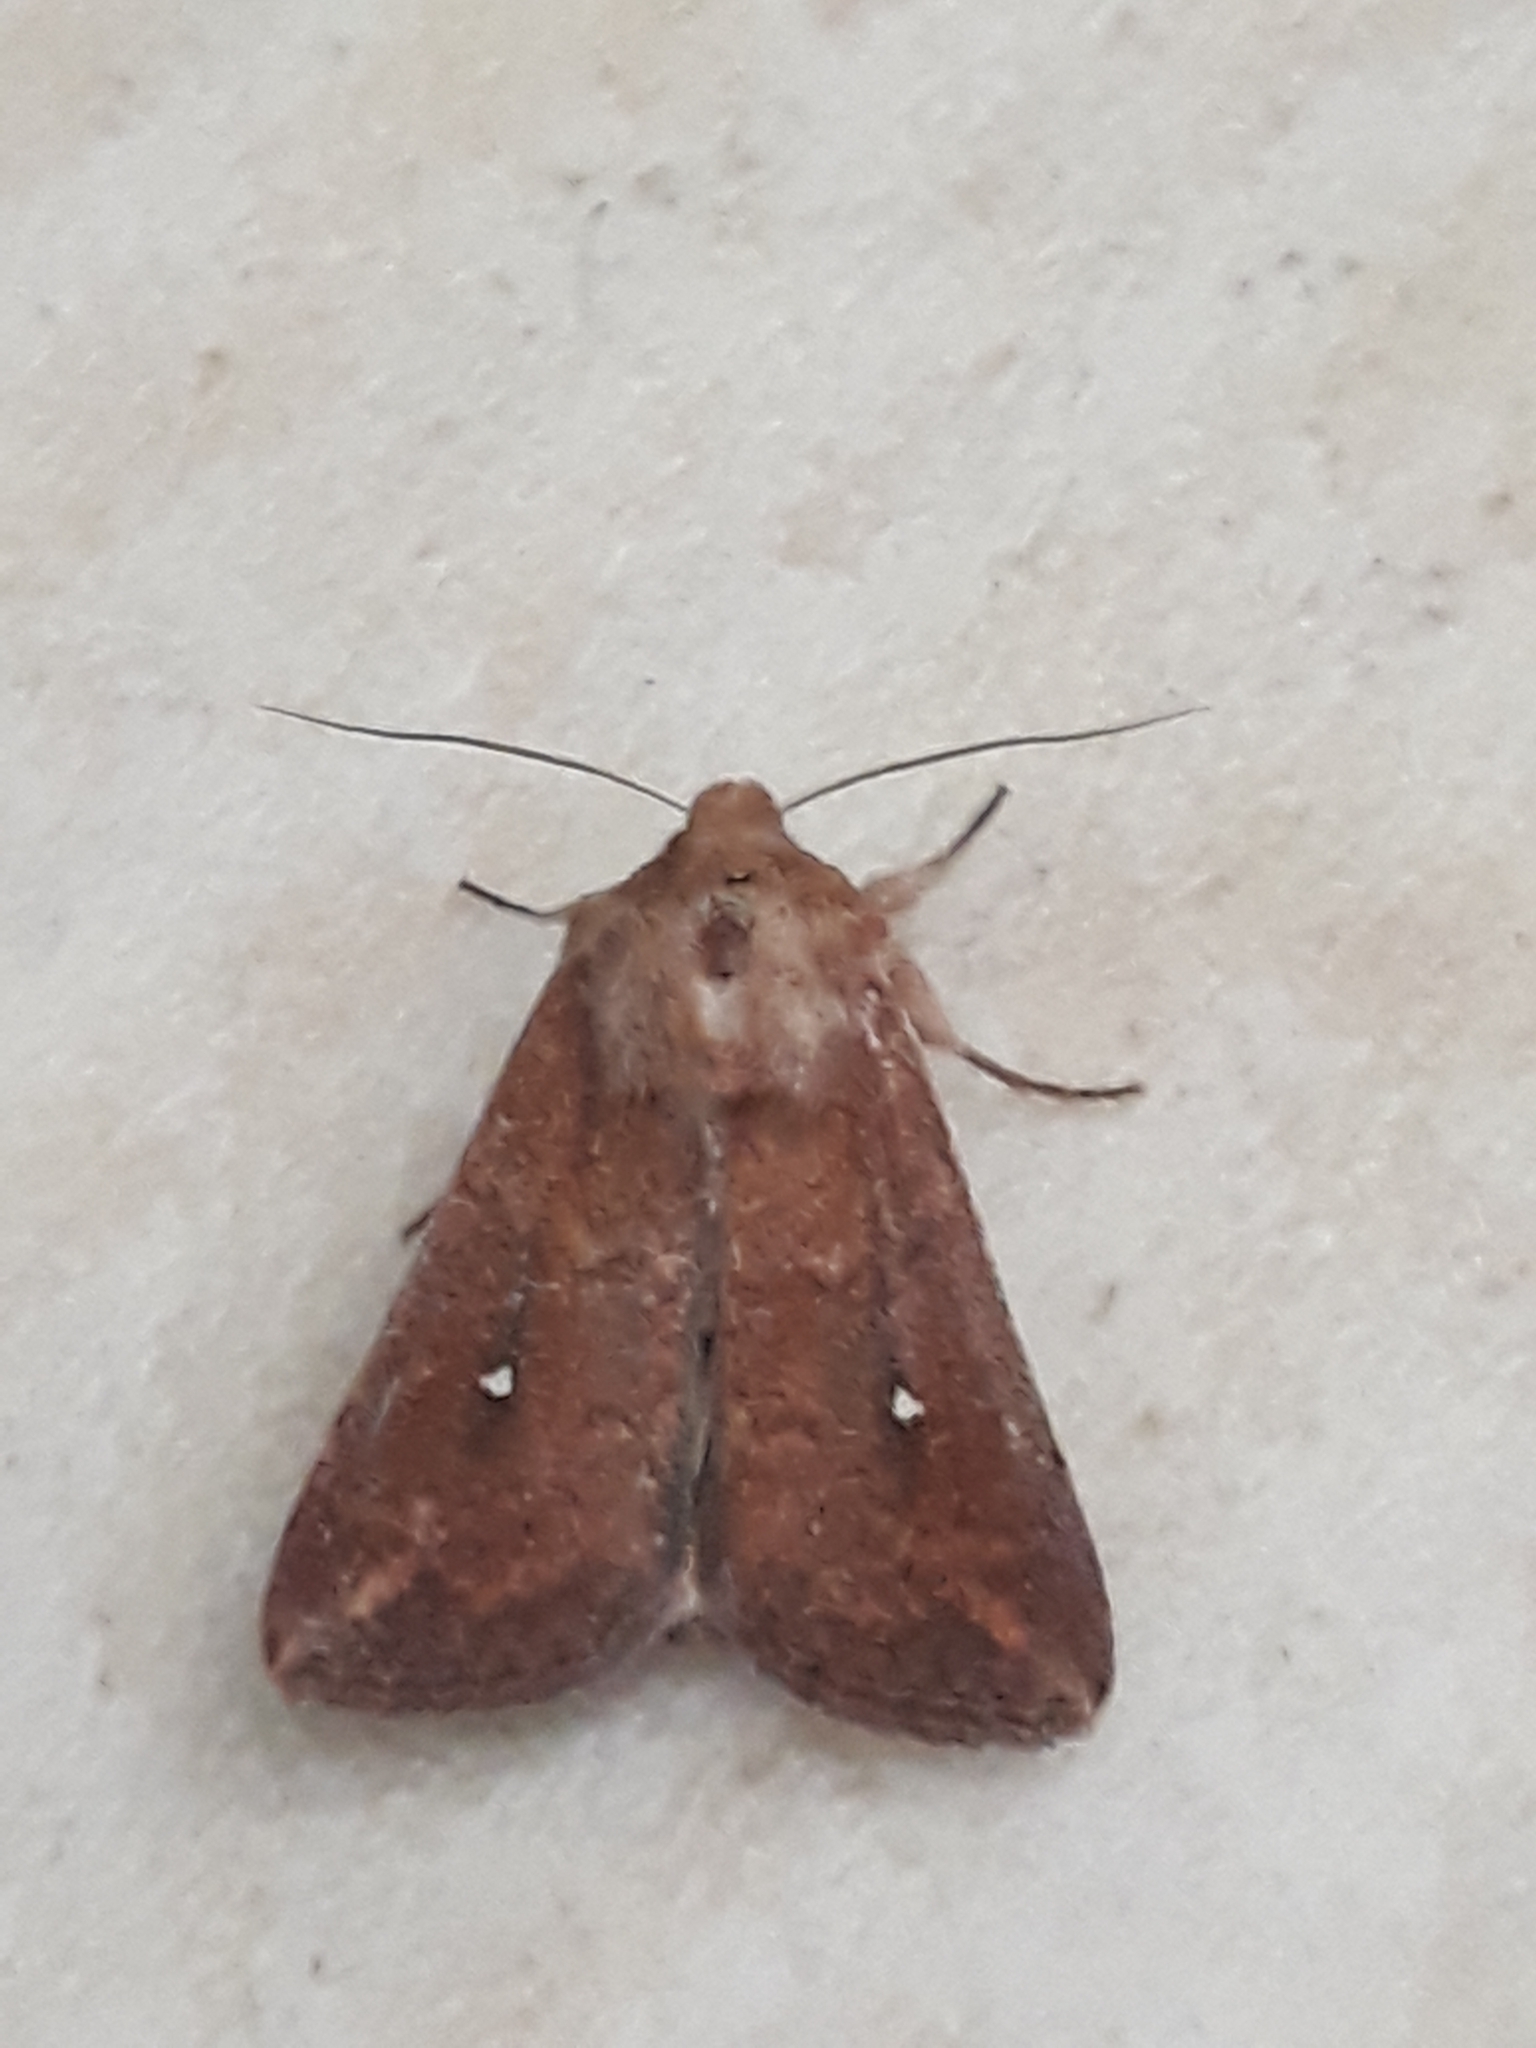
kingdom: Animalia
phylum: Arthropoda
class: Insecta
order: Lepidoptera
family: Noctuidae
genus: Mythimna
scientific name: Mythimna albipuncta
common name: White-point
